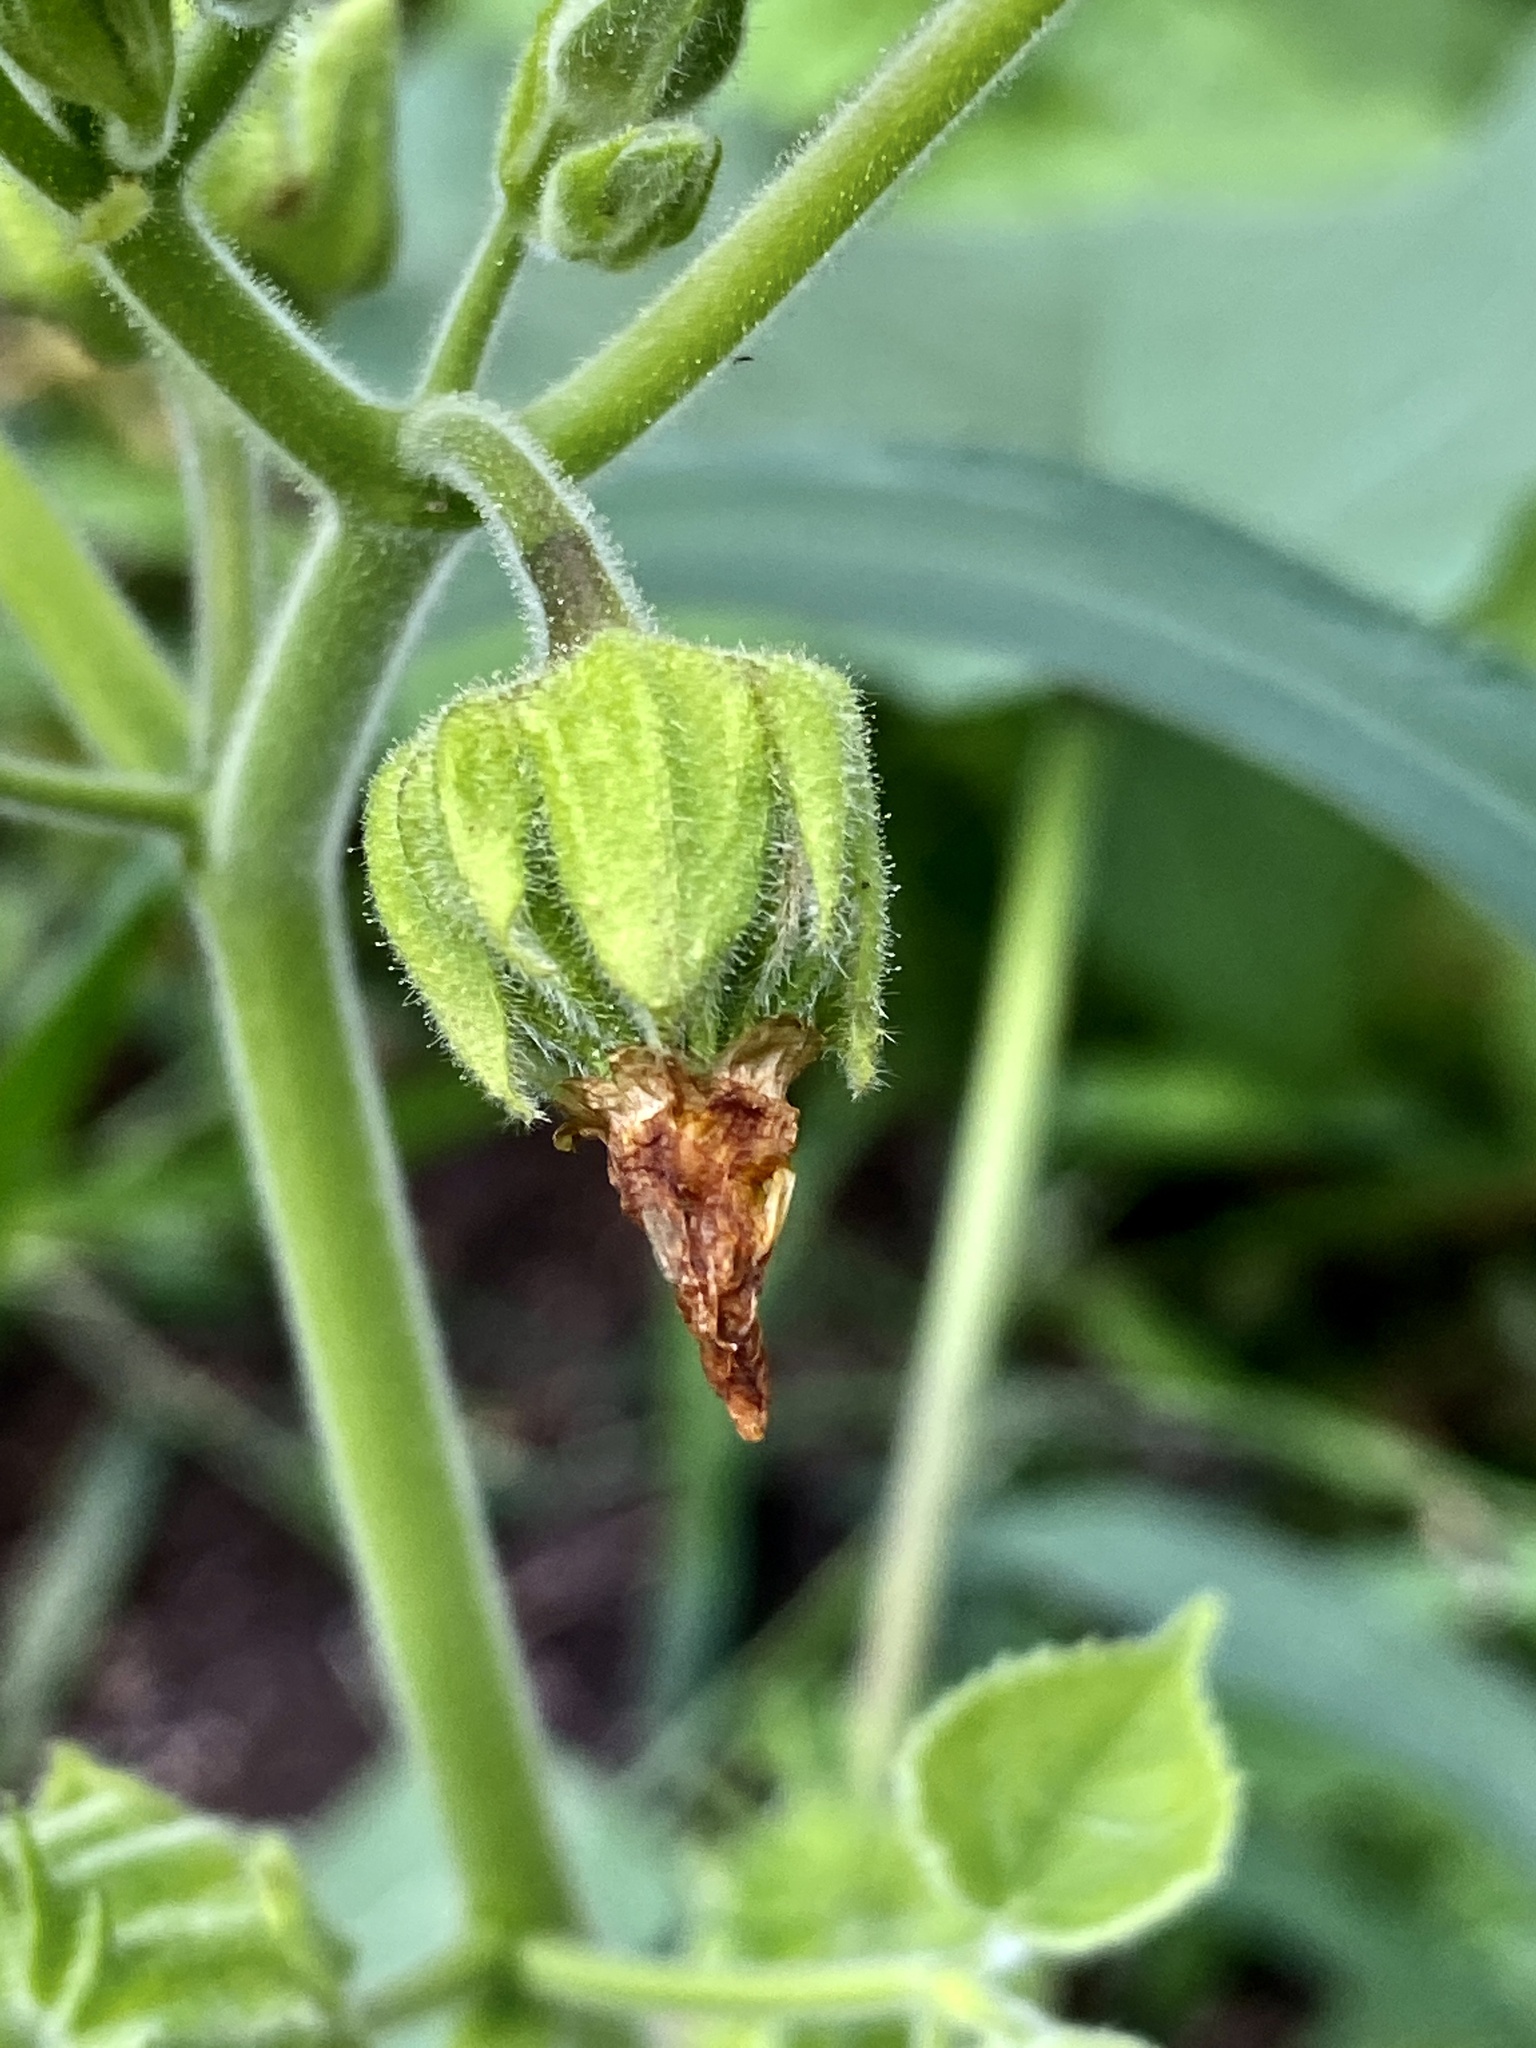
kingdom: Plantae
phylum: Tracheophyta
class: Magnoliopsida
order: Malvales
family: Malvaceae
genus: Abutilon
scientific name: Abutilon theophrasti
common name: Velvetleaf
